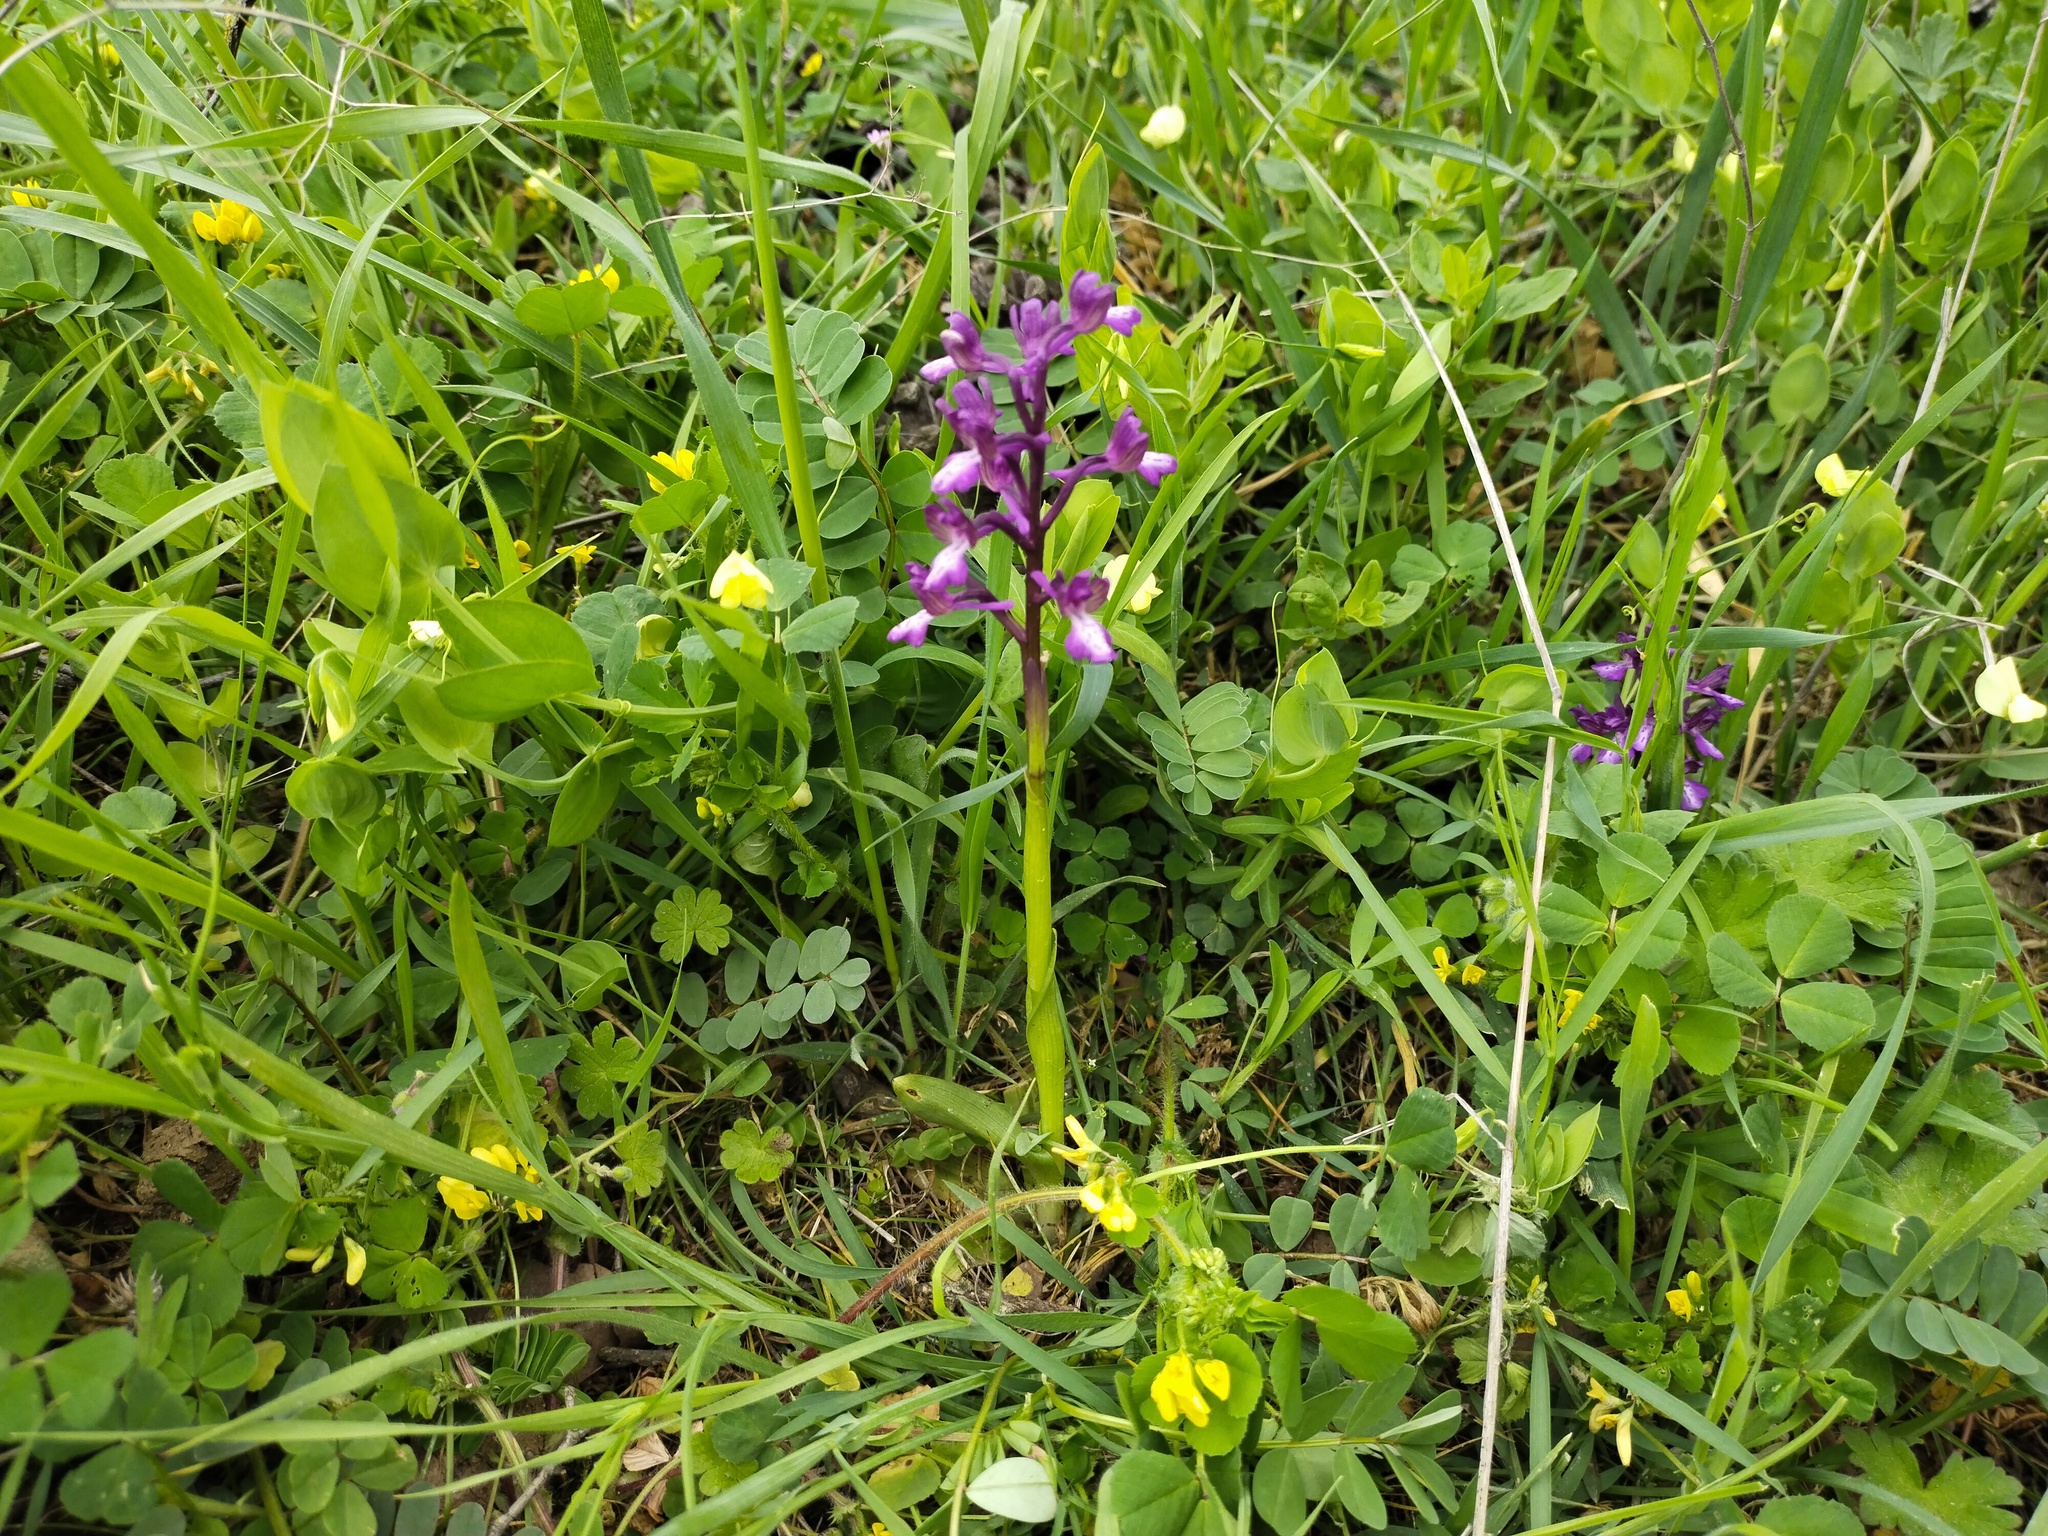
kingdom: Plantae
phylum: Tracheophyta
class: Liliopsida
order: Asparagales
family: Orchidaceae
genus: Anacamptis
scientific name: Anacamptis morio
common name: Green-winged orchid
